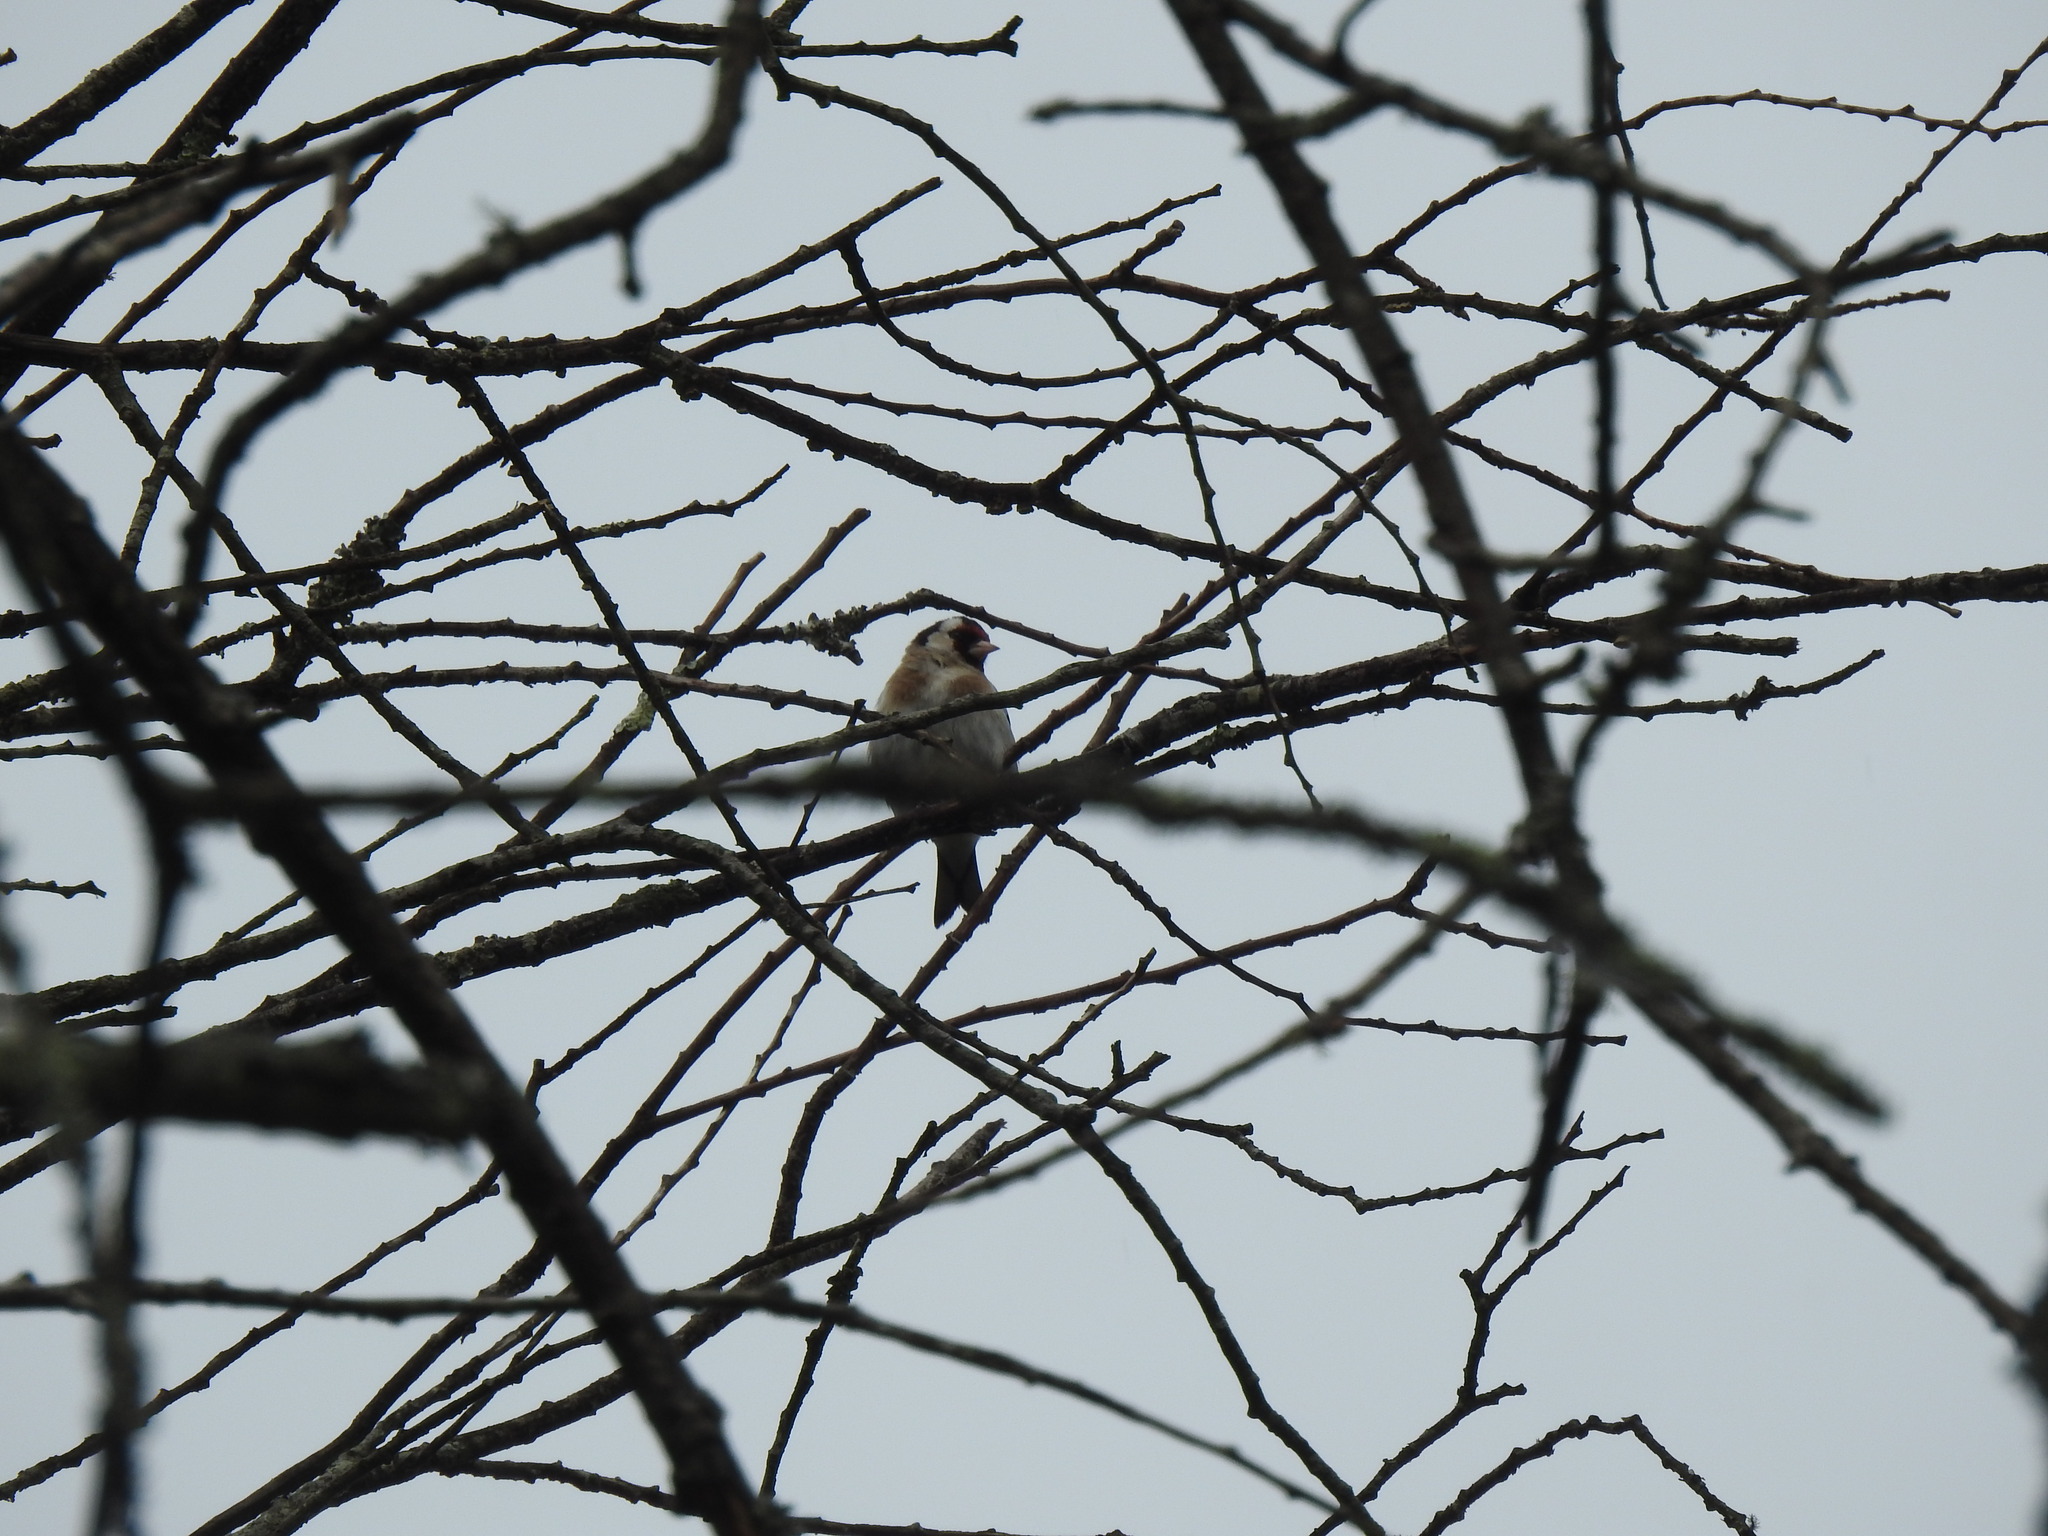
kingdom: Animalia
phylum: Chordata
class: Aves
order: Passeriformes
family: Fringillidae
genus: Carduelis
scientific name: Carduelis carduelis
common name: European goldfinch
